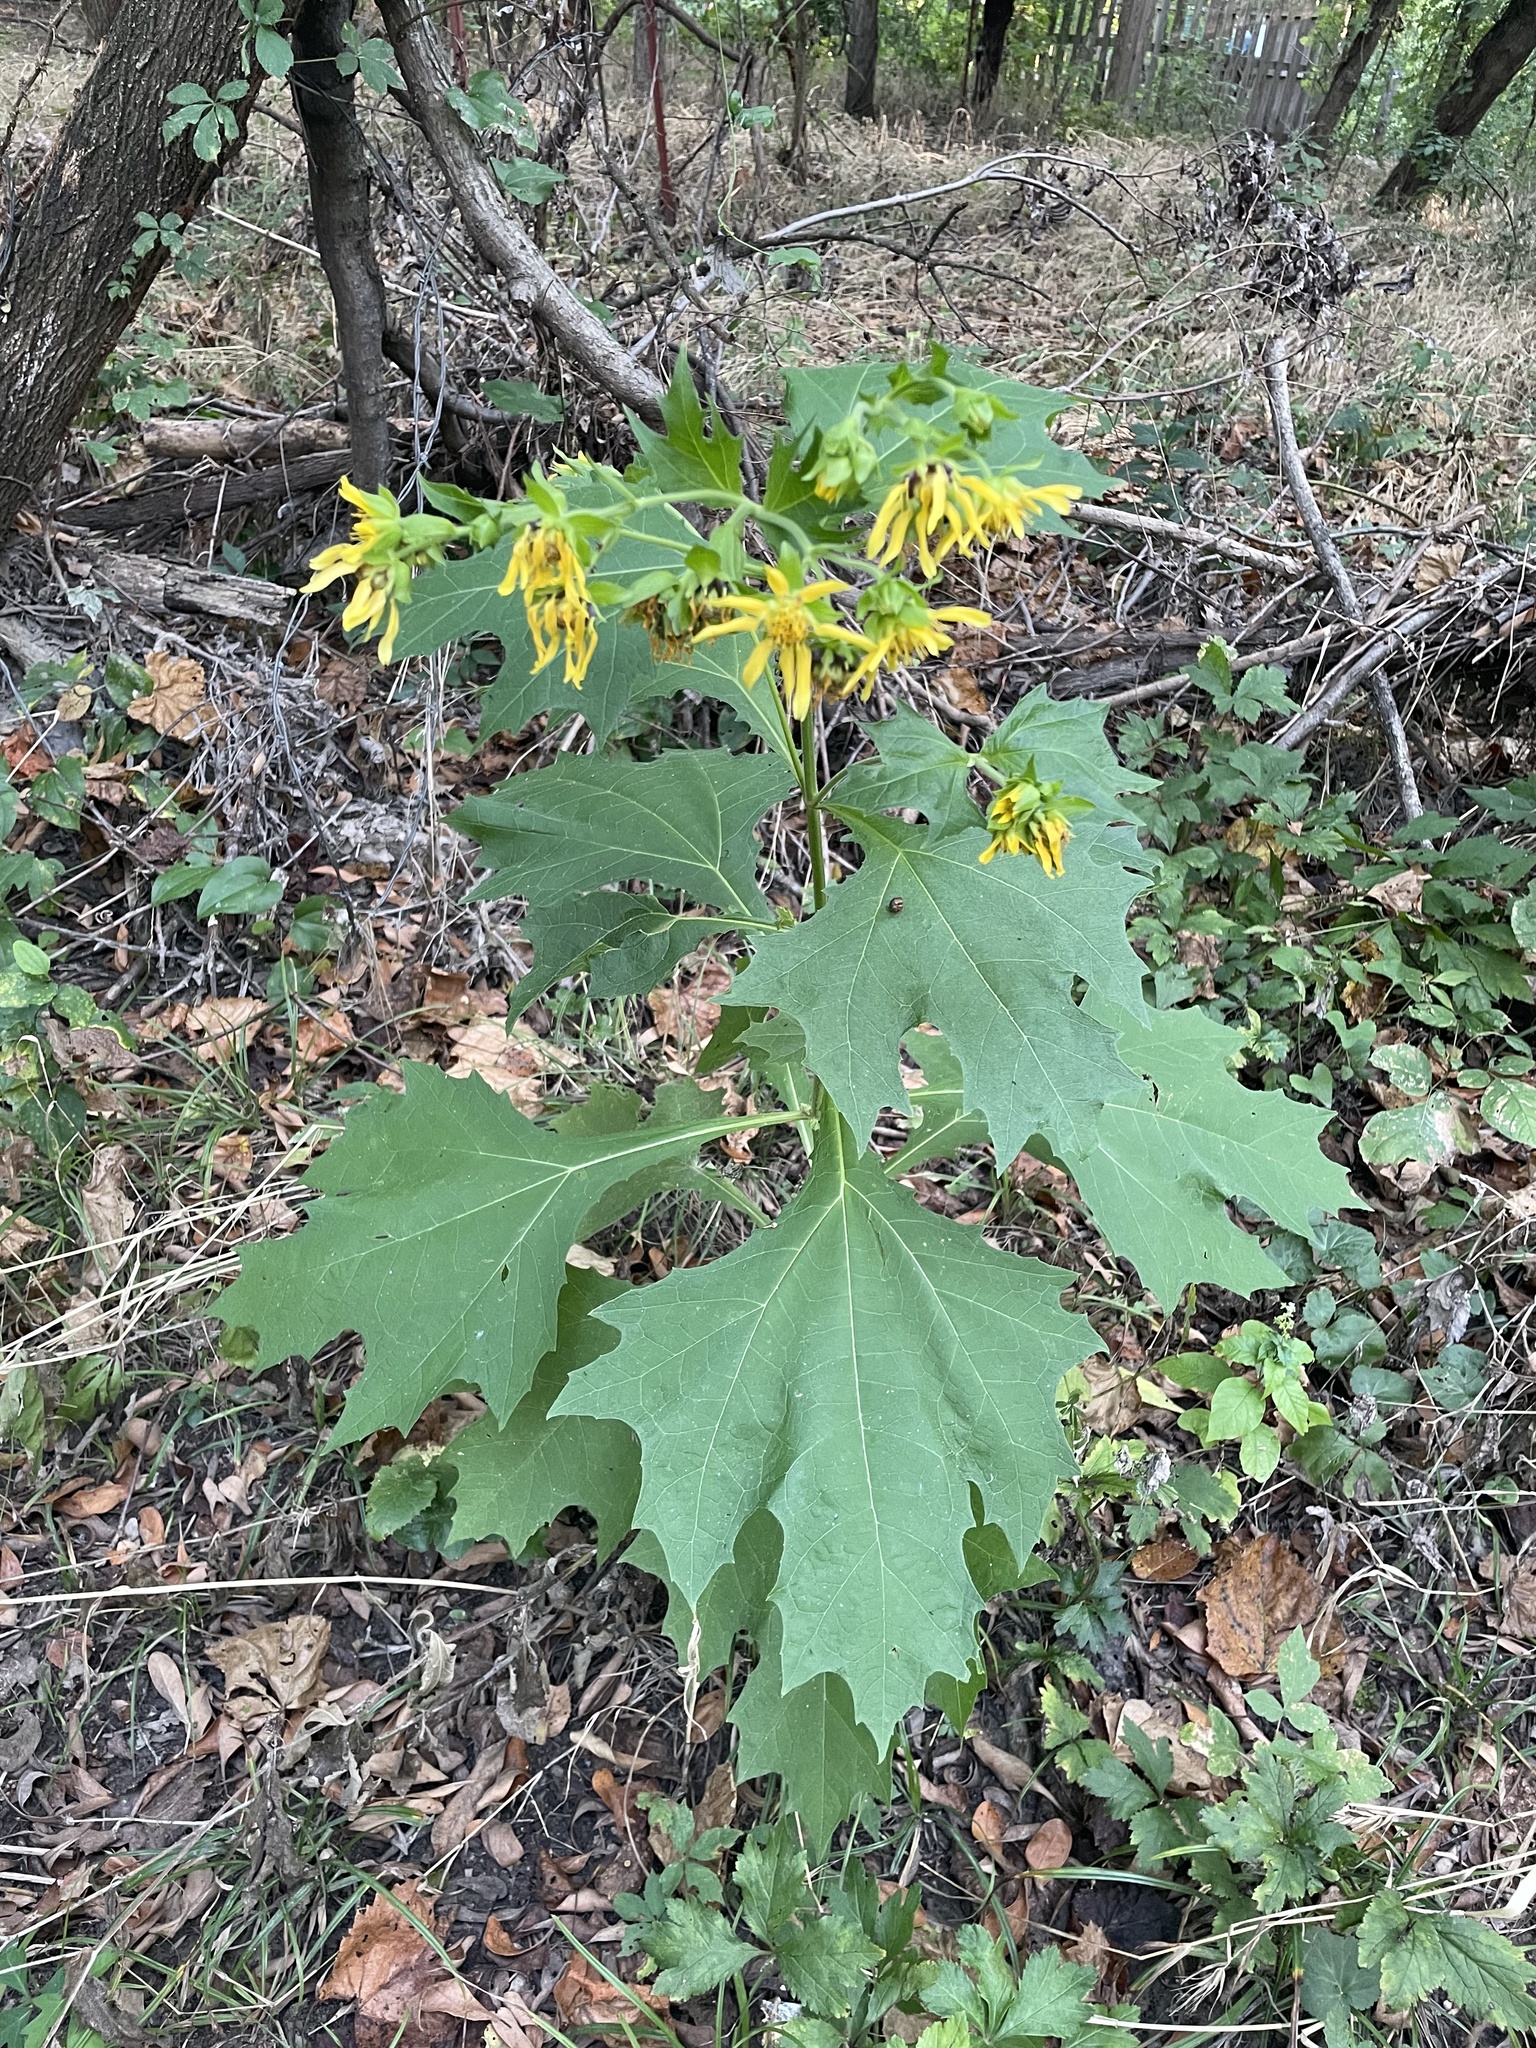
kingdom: Plantae
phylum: Tracheophyta
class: Magnoliopsida
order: Asterales
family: Asteraceae
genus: Smallanthus
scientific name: Smallanthus uvedalia
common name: Bear's-foot
